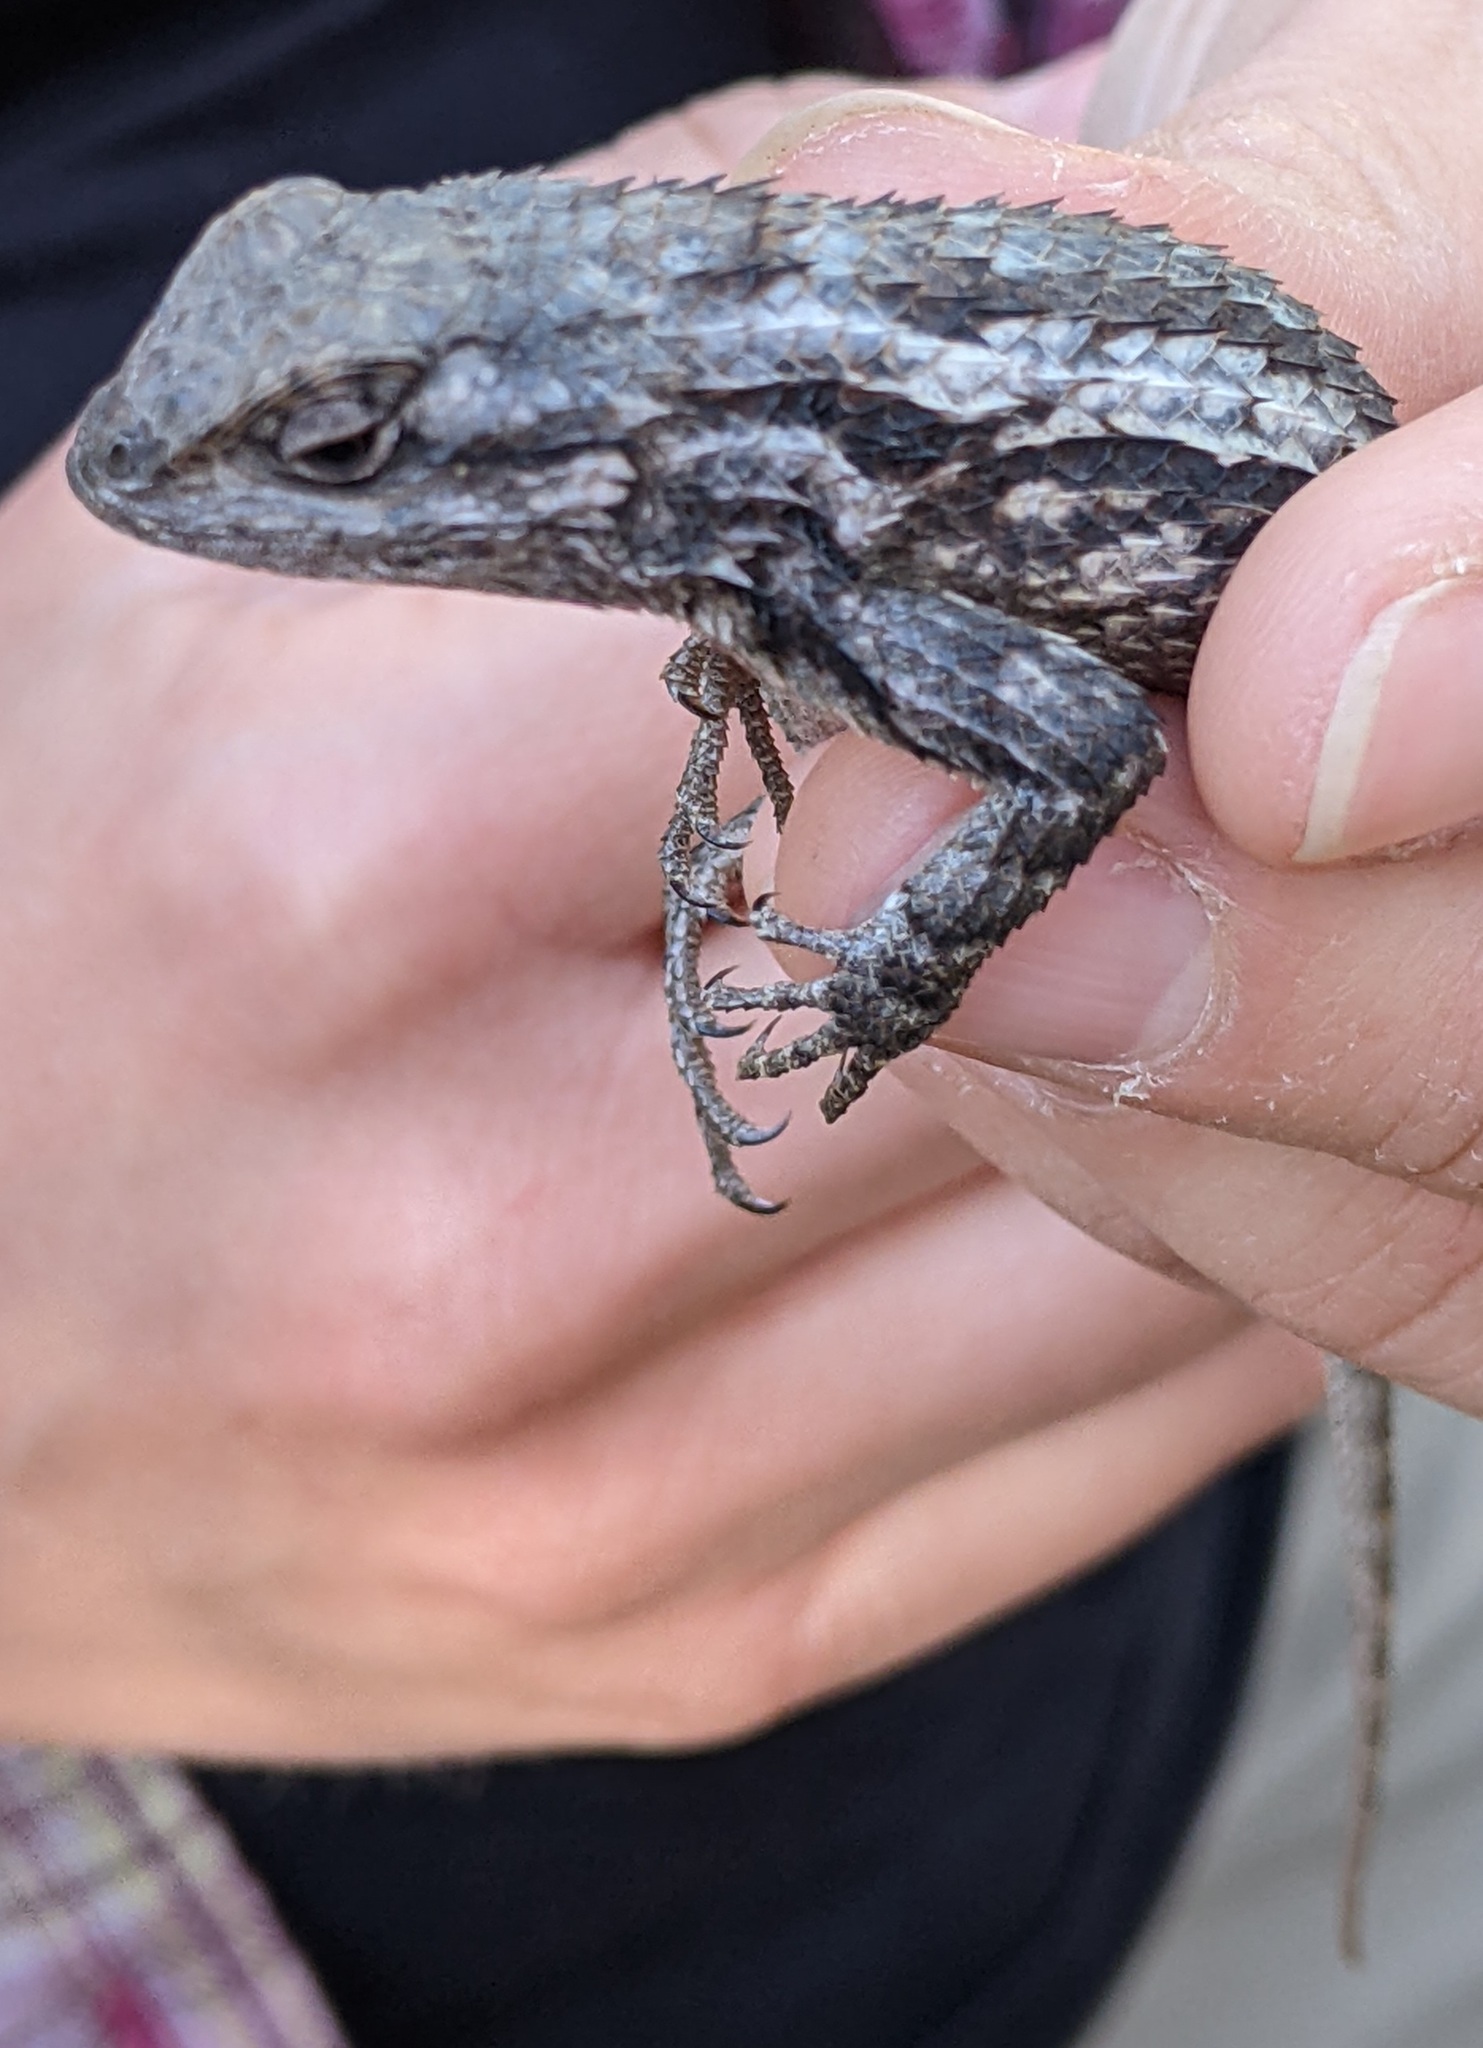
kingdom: Animalia
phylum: Chordata
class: Squamata
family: Phrynosomatidae
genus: Sceloporus
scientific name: Sceloporus olivaceus
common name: Texas spiny lizard
